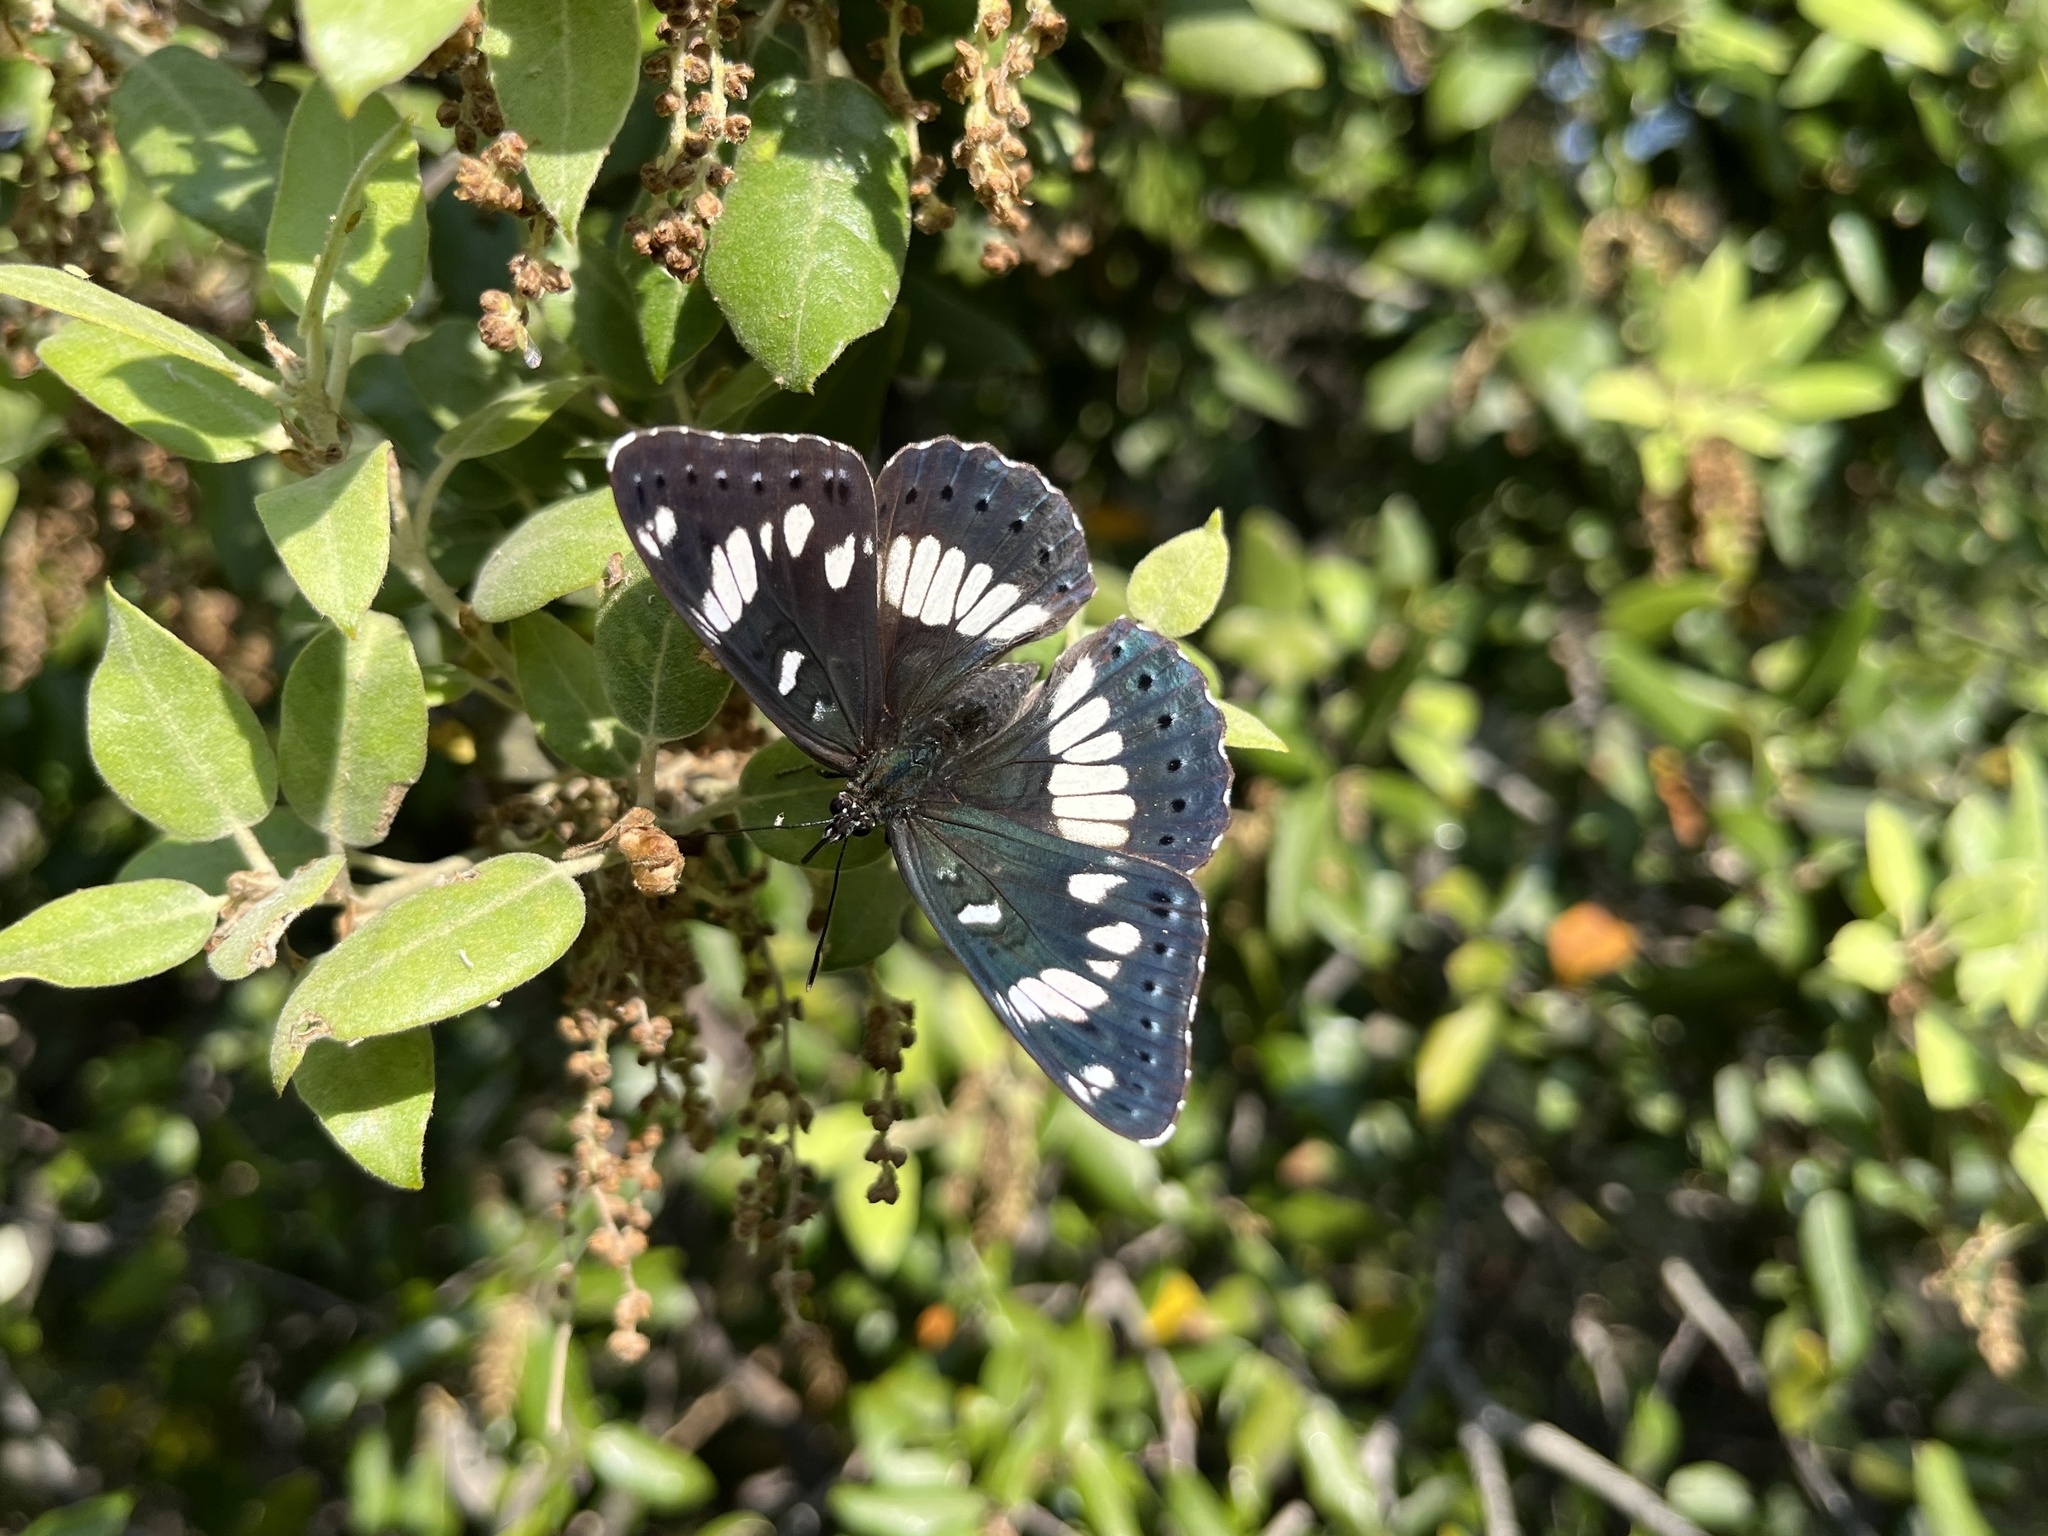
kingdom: Animalia
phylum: Arthropoda
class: Insecta
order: Lepidoptera
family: Nymphalidae
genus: Limenitis
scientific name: Limenitis reducta
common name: Southern white admiral
